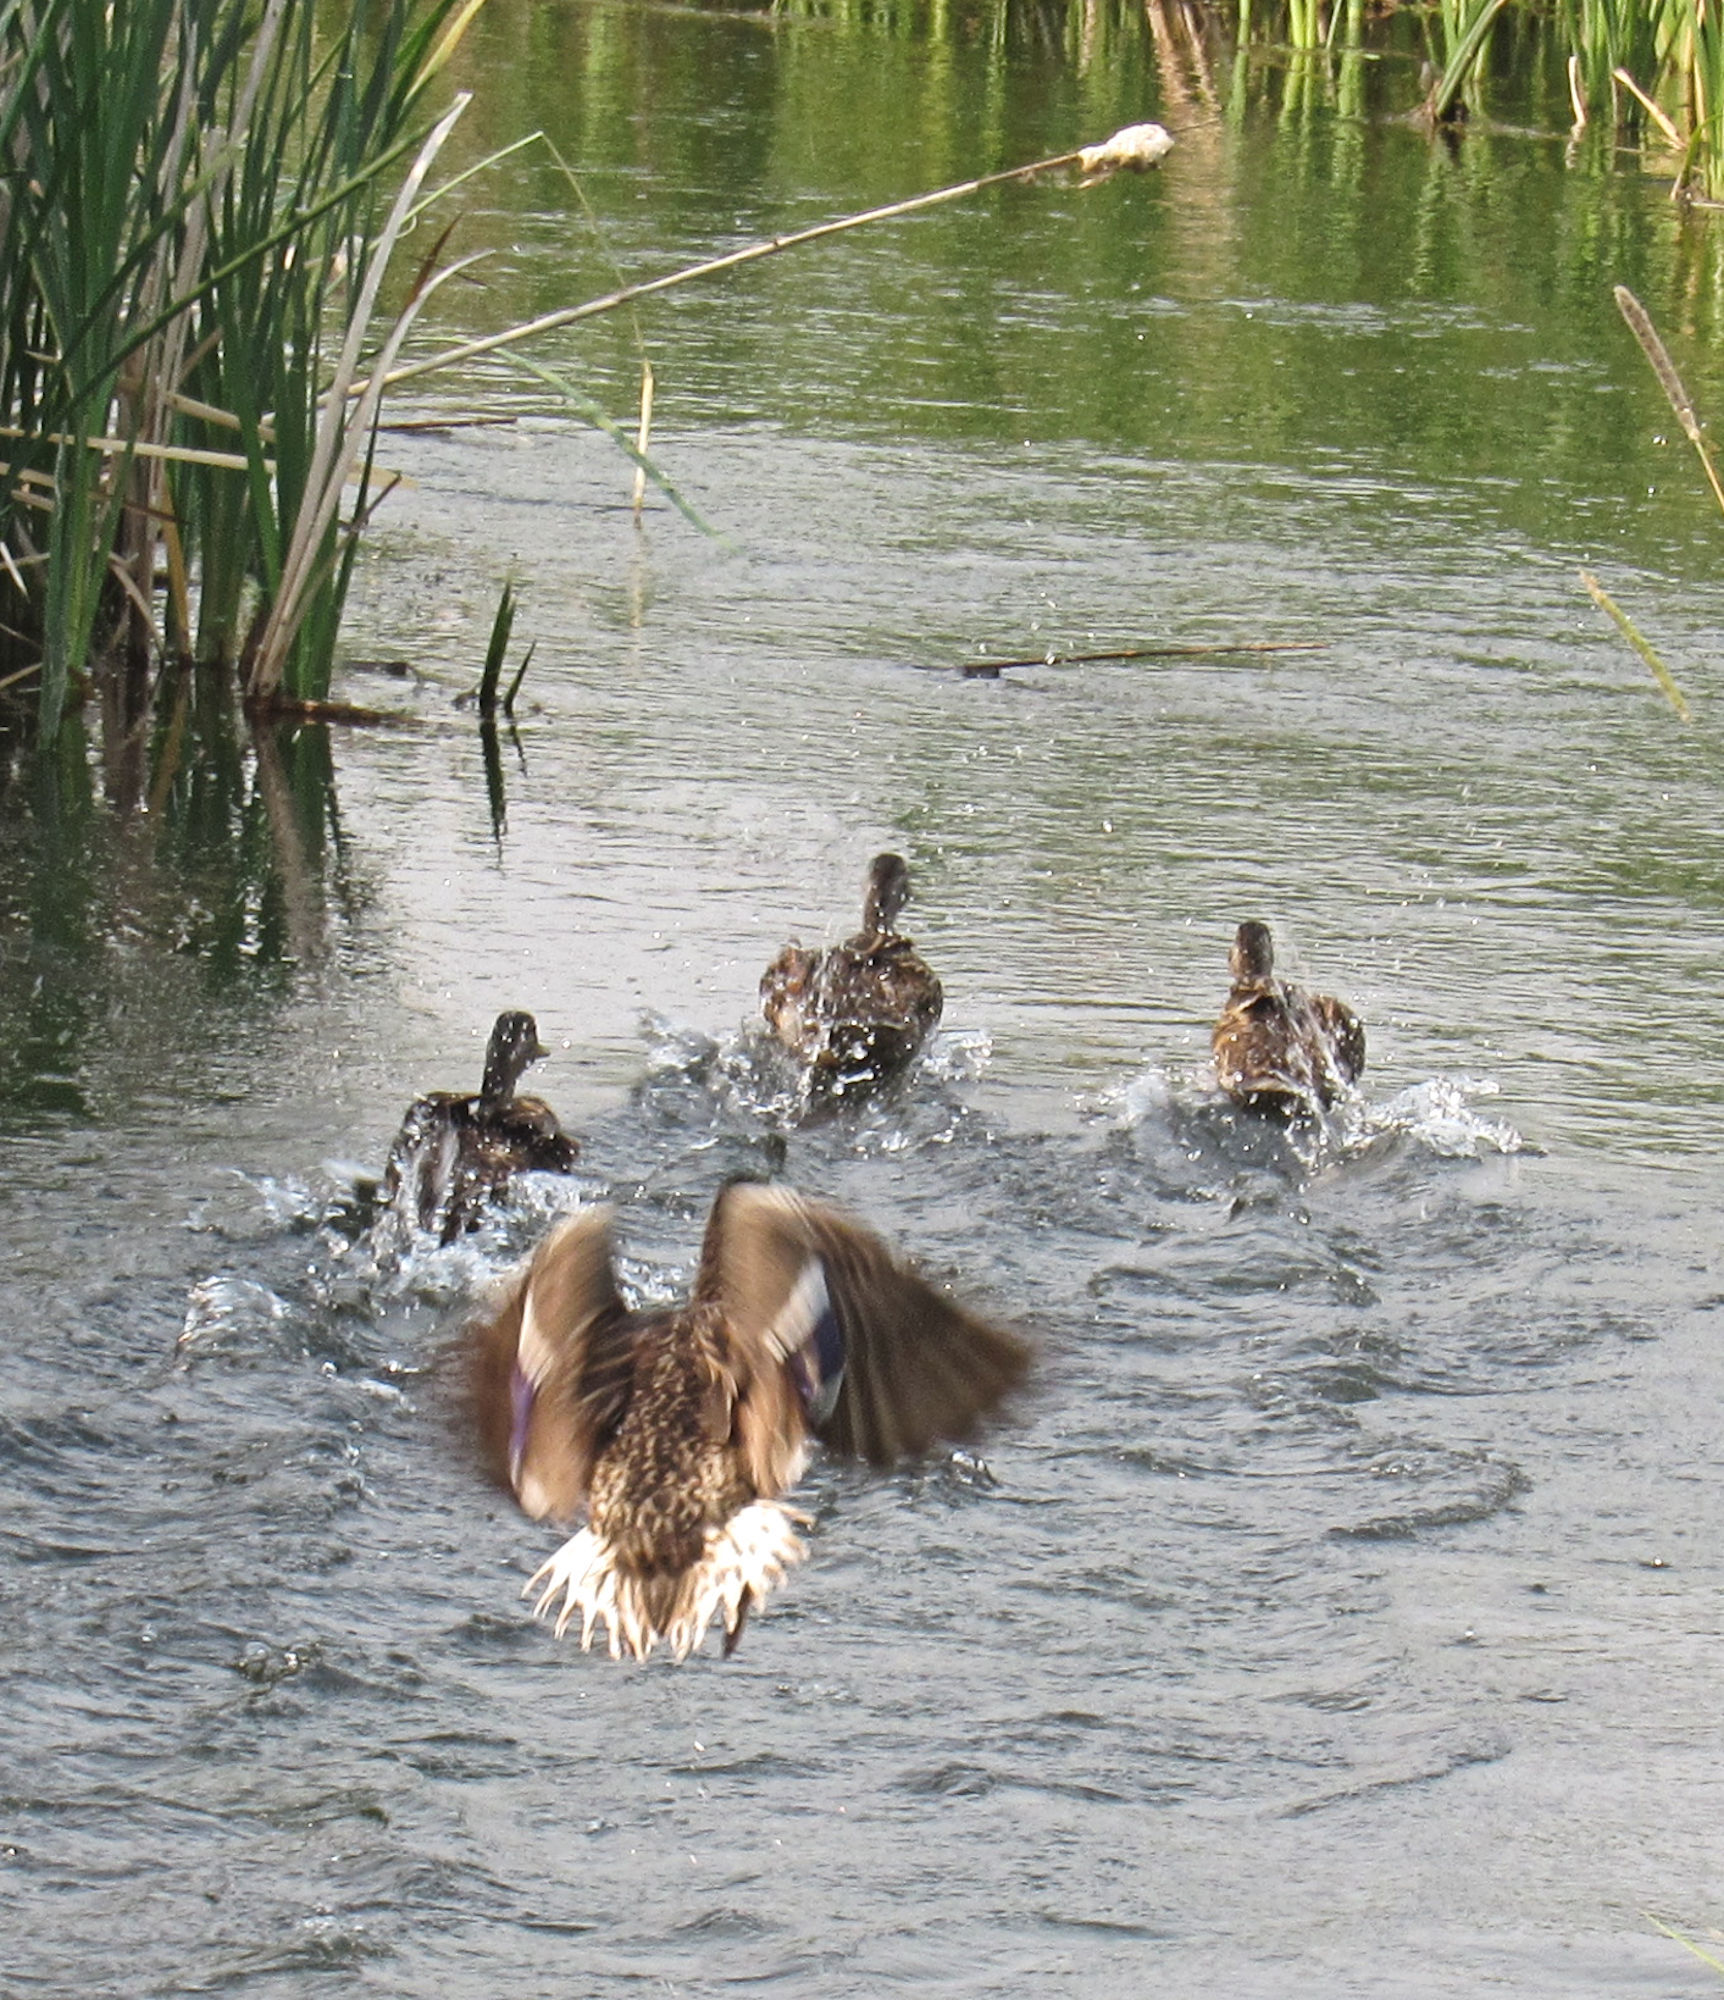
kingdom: Animalia
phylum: Chordata
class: Aves
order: Anseriformes
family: Anatidae
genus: Anas
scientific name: Anas platyrhynchos
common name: Mallard
